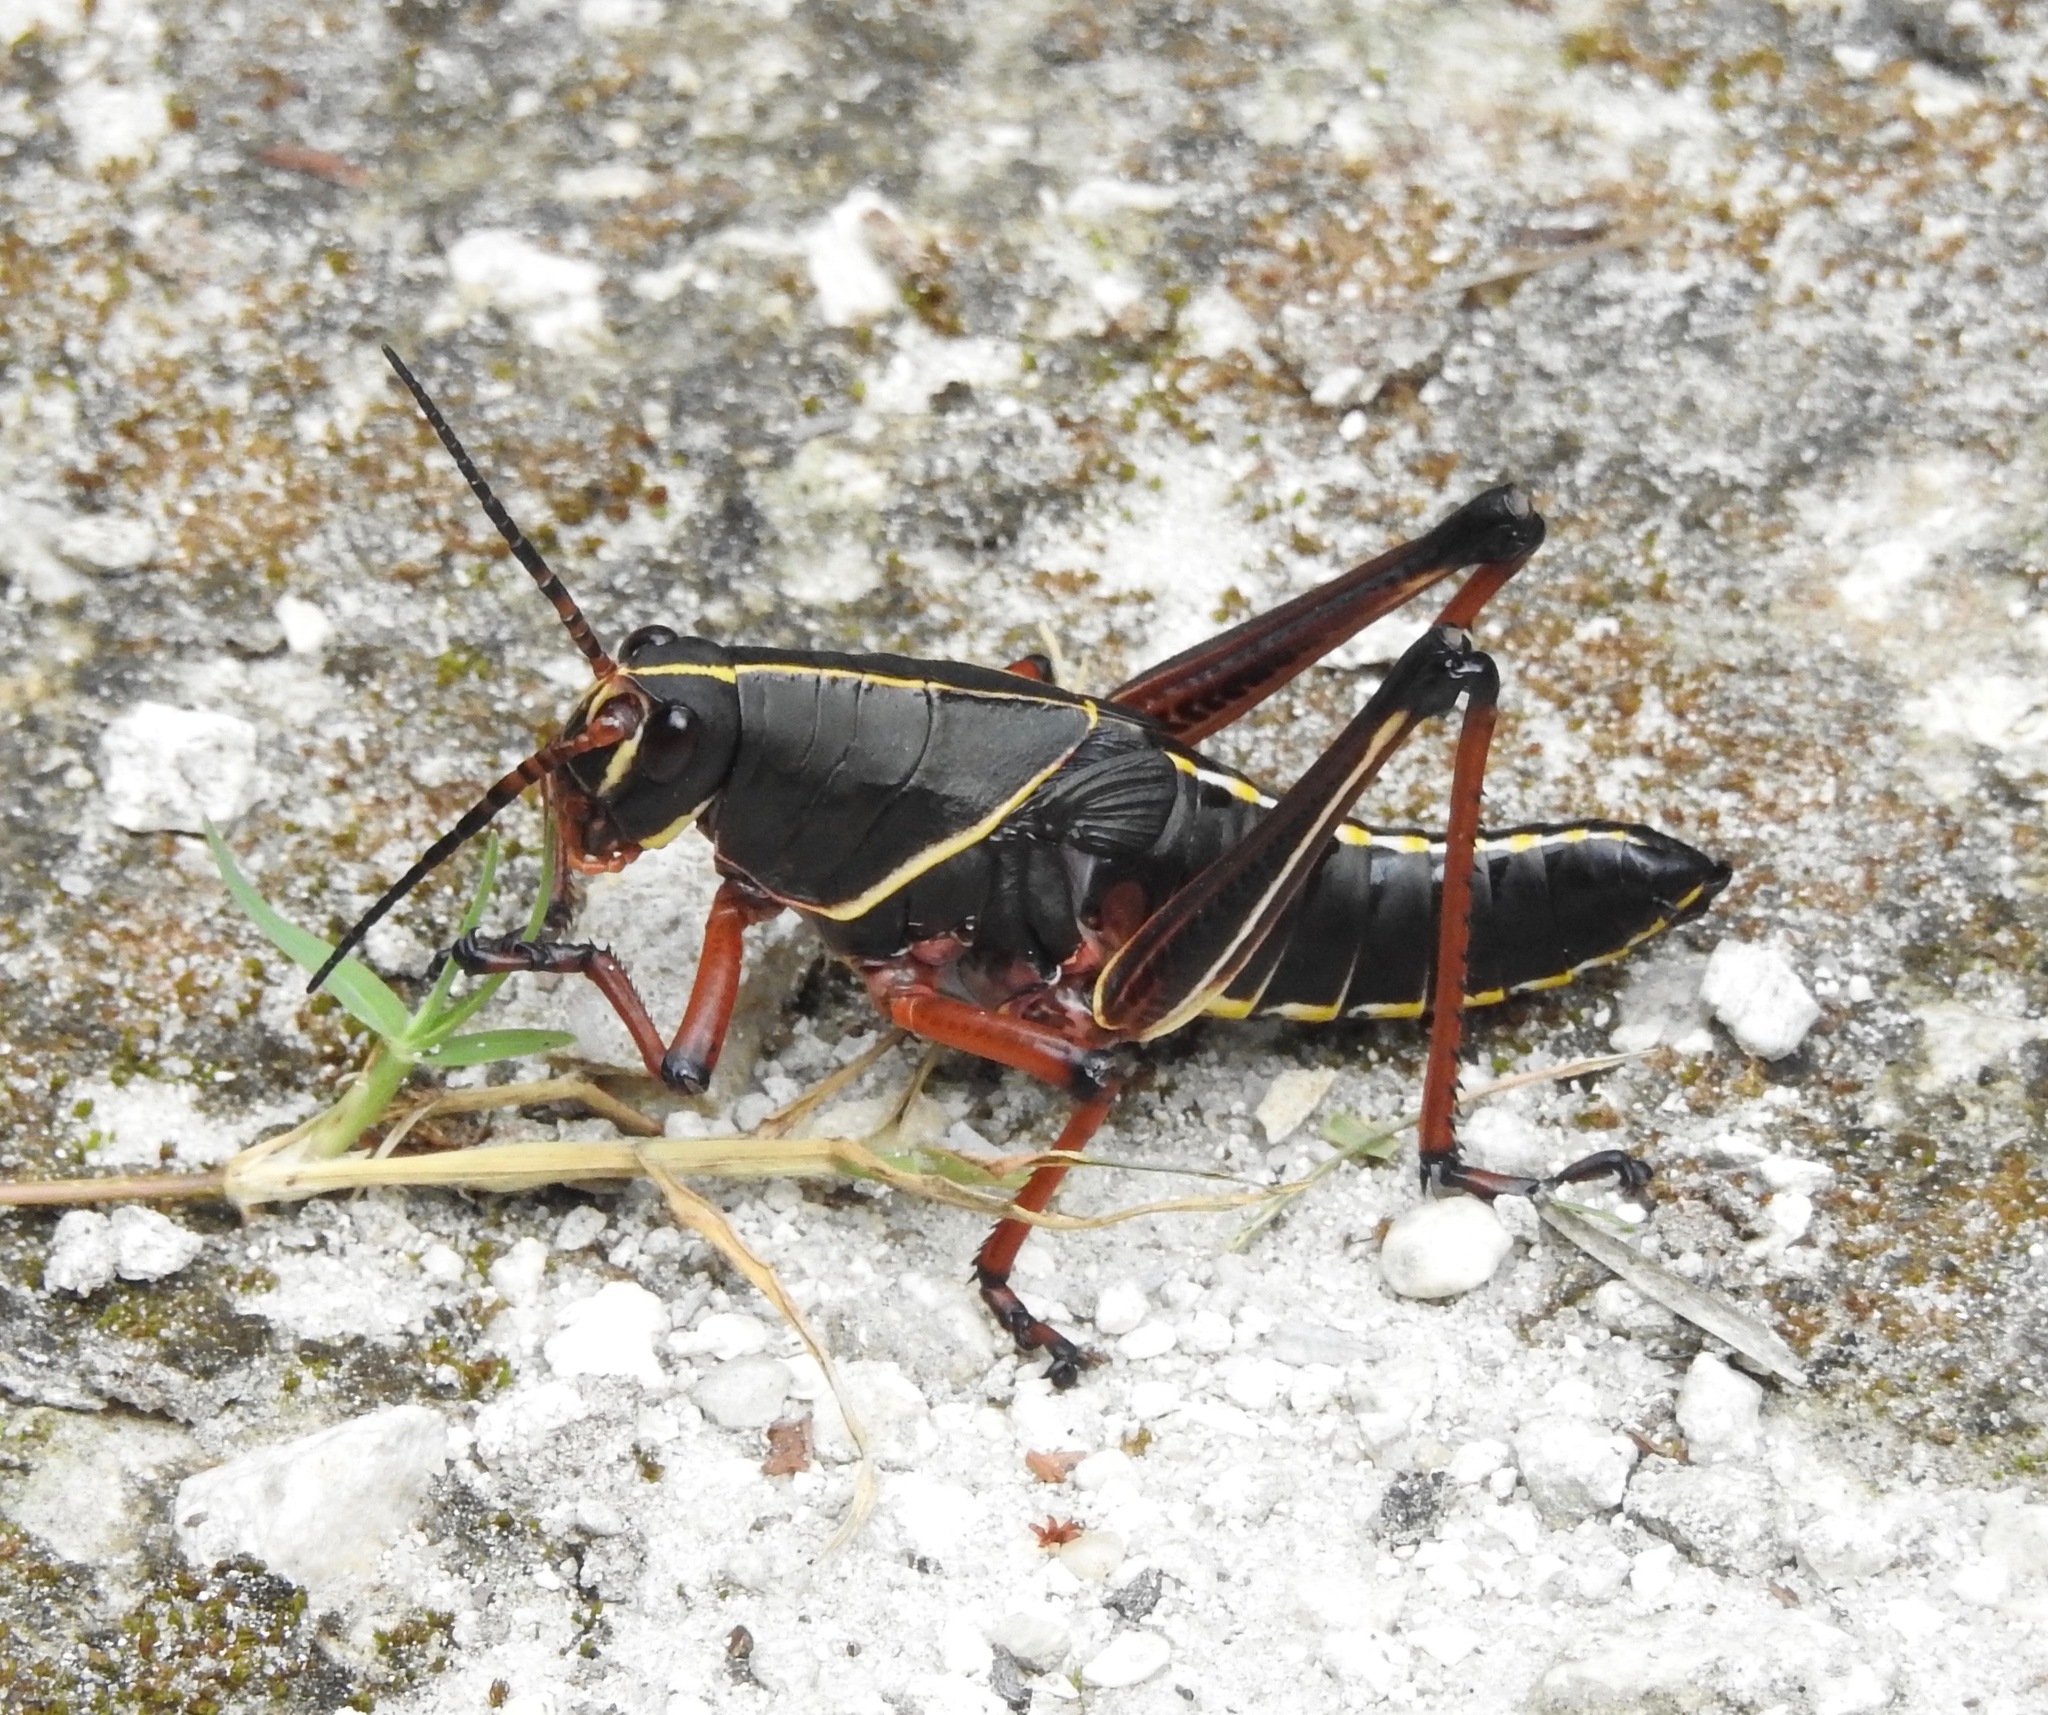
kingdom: Animalia
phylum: Arthropoda
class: Insecta
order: Orthoptera
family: Romaleidae
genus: Romalea
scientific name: Romalea microptera
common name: Eastern lubber grasshopper
